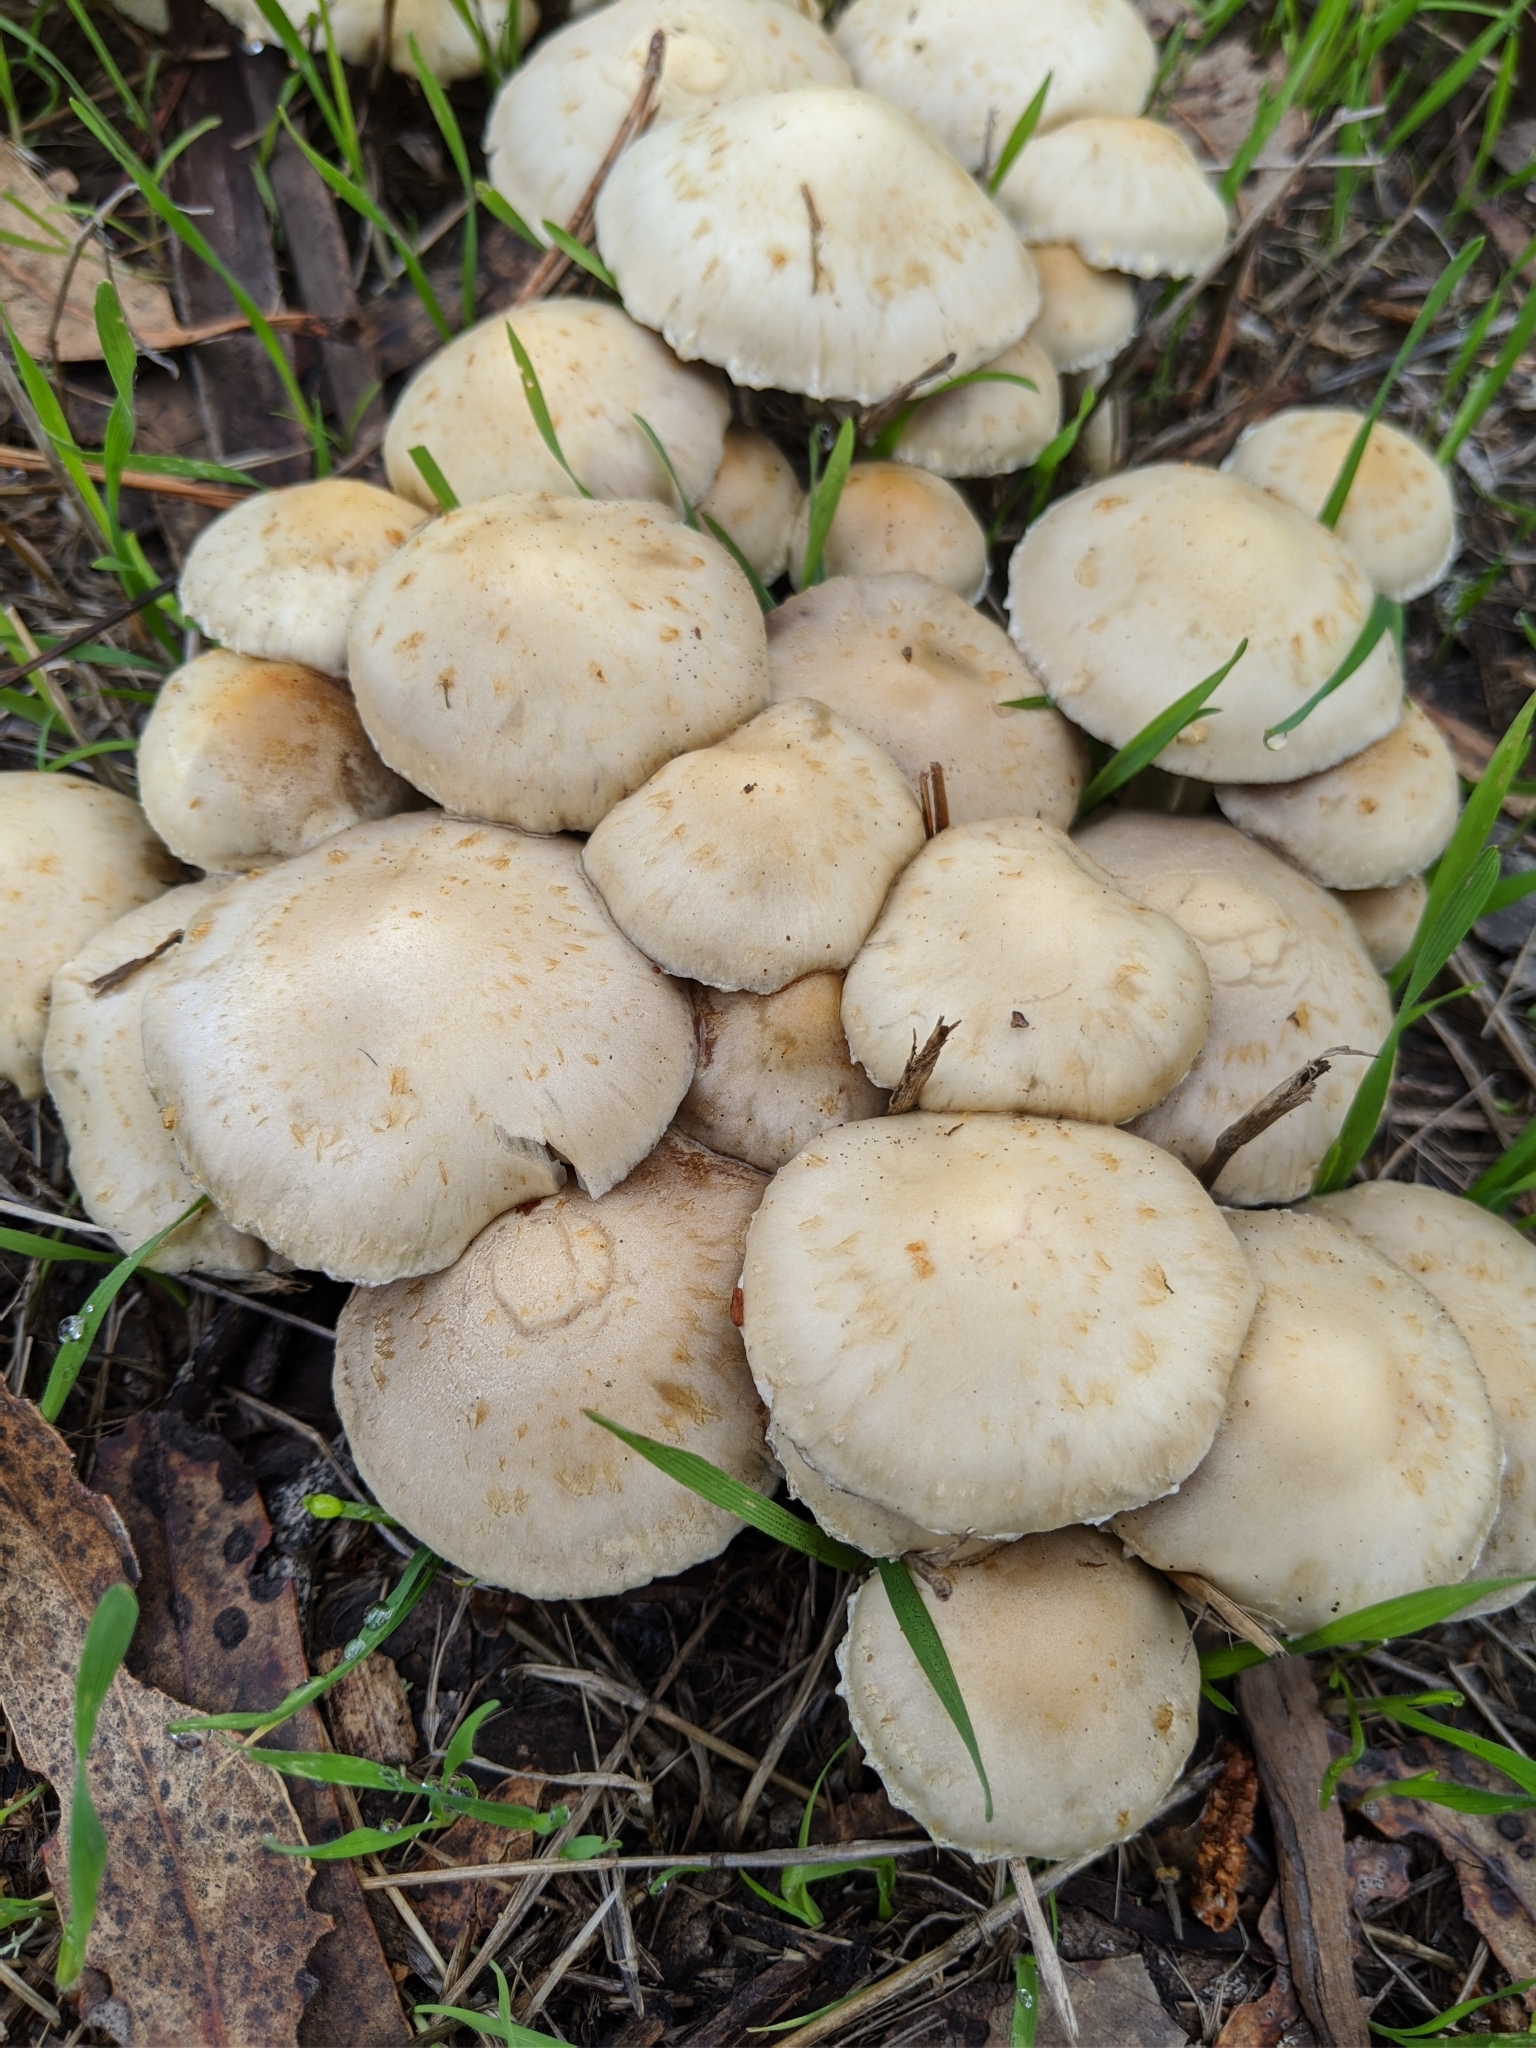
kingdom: Fungi
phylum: Basidiomycota
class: Agaricomycetes
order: Agaricales
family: Strophariaceae
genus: Leratiomyces
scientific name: Leratiomyces percevalii
